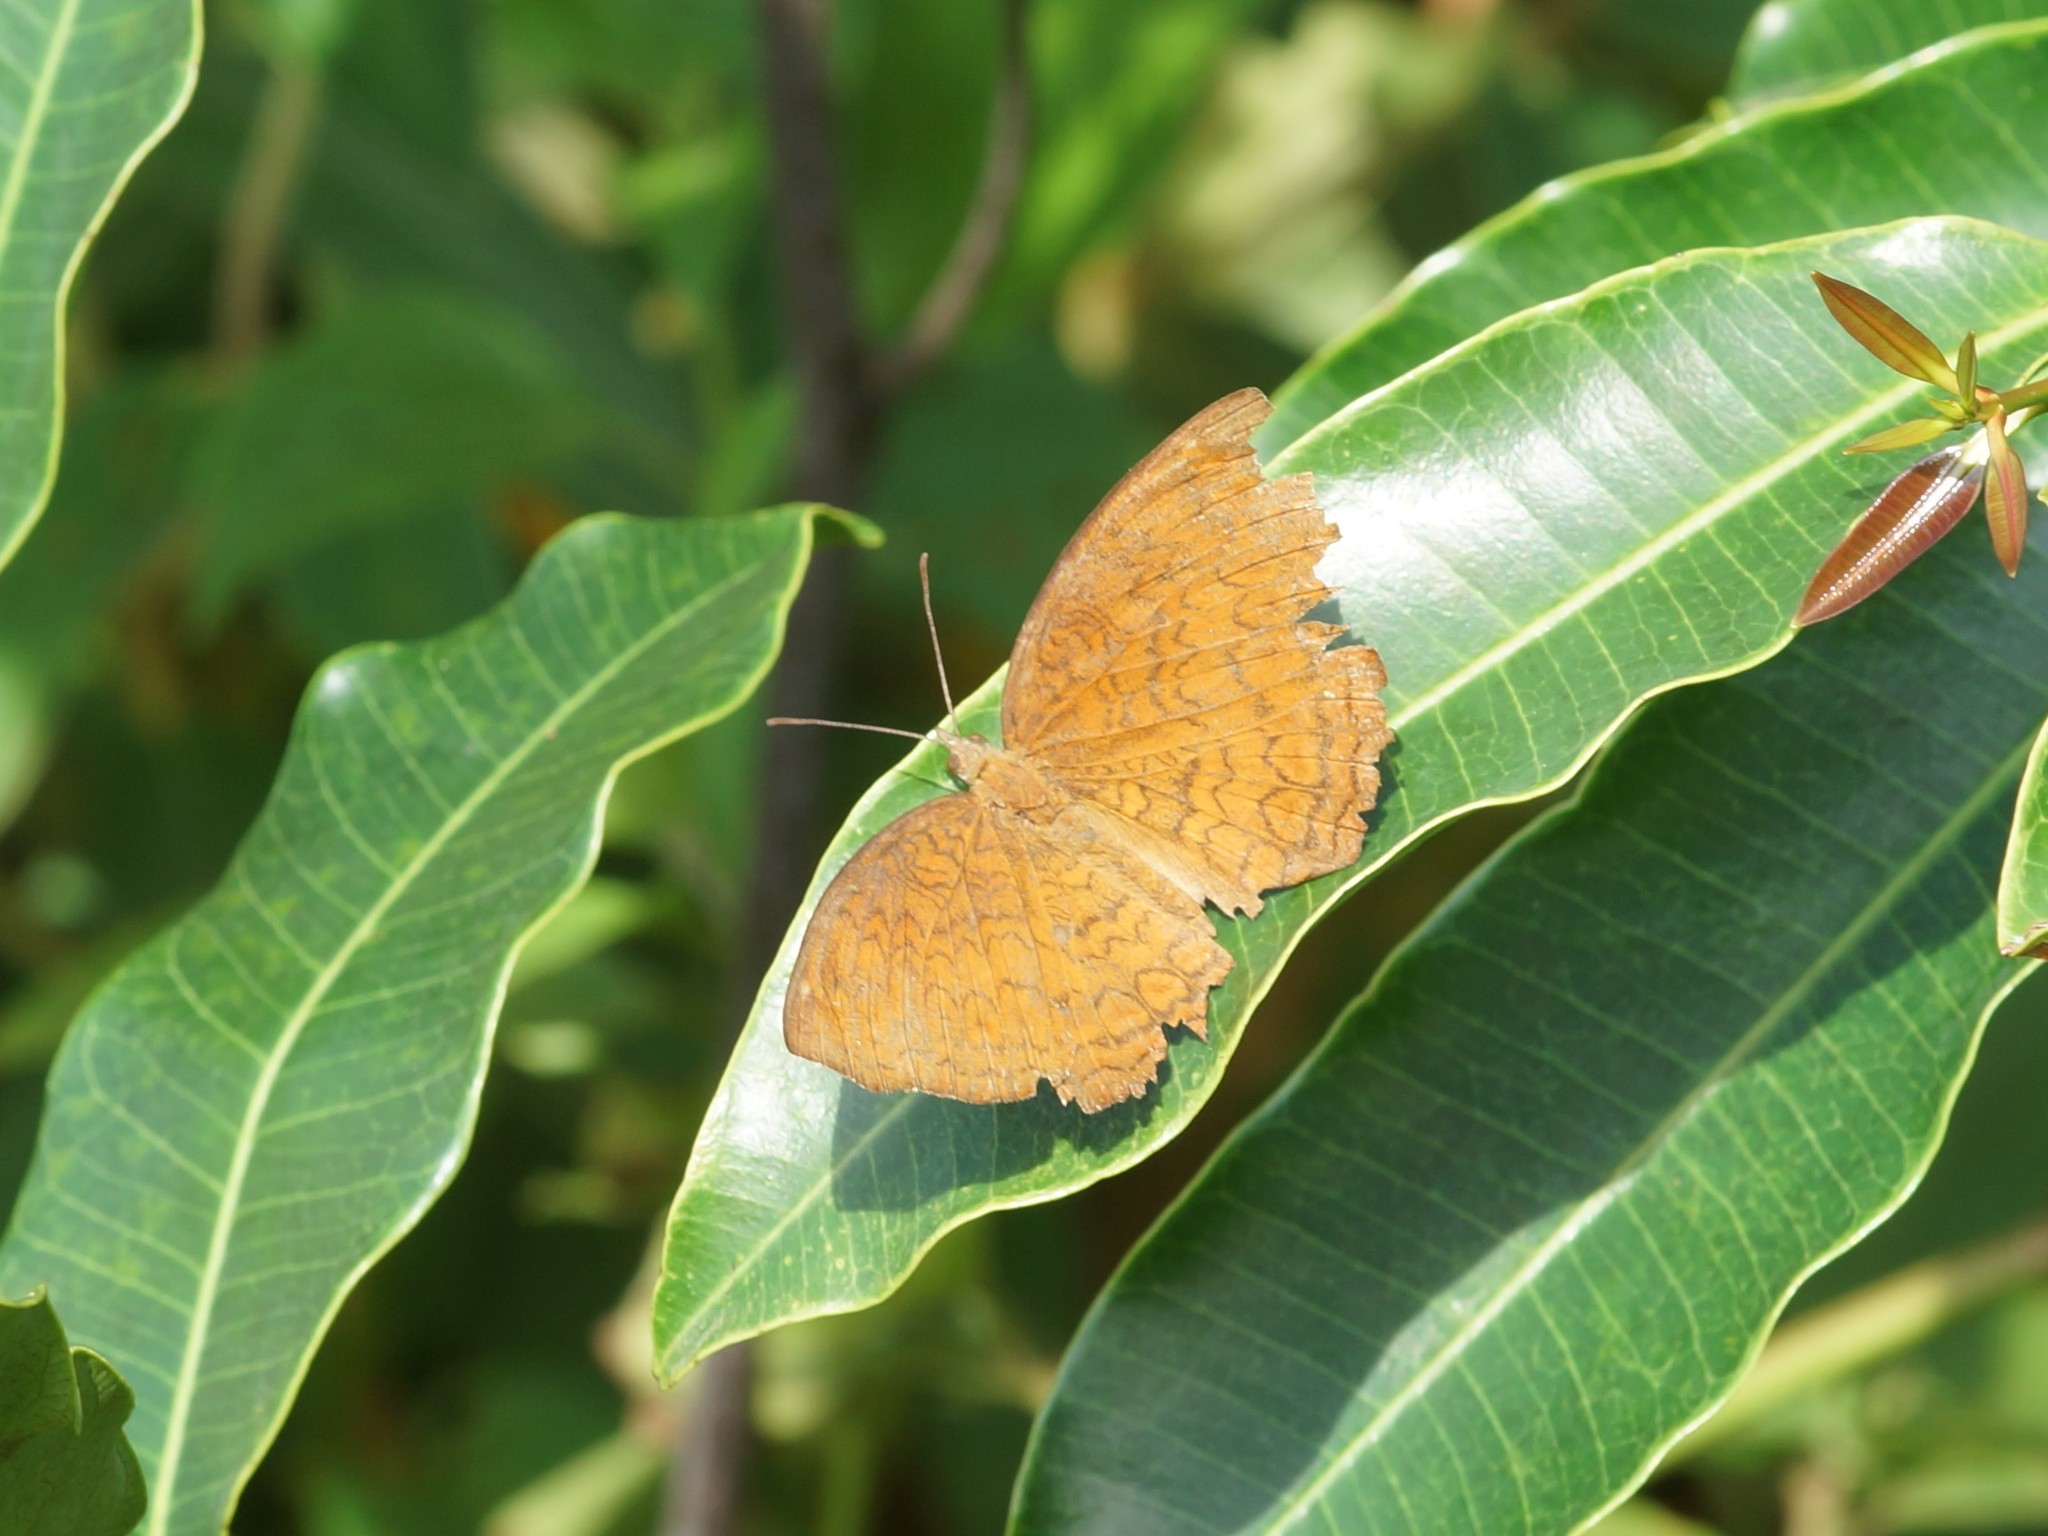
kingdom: Animalia
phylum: Arthropoda
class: Insecta
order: Lepidoptera
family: Nymphalidae
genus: Ariadne
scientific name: Ariadne merione
